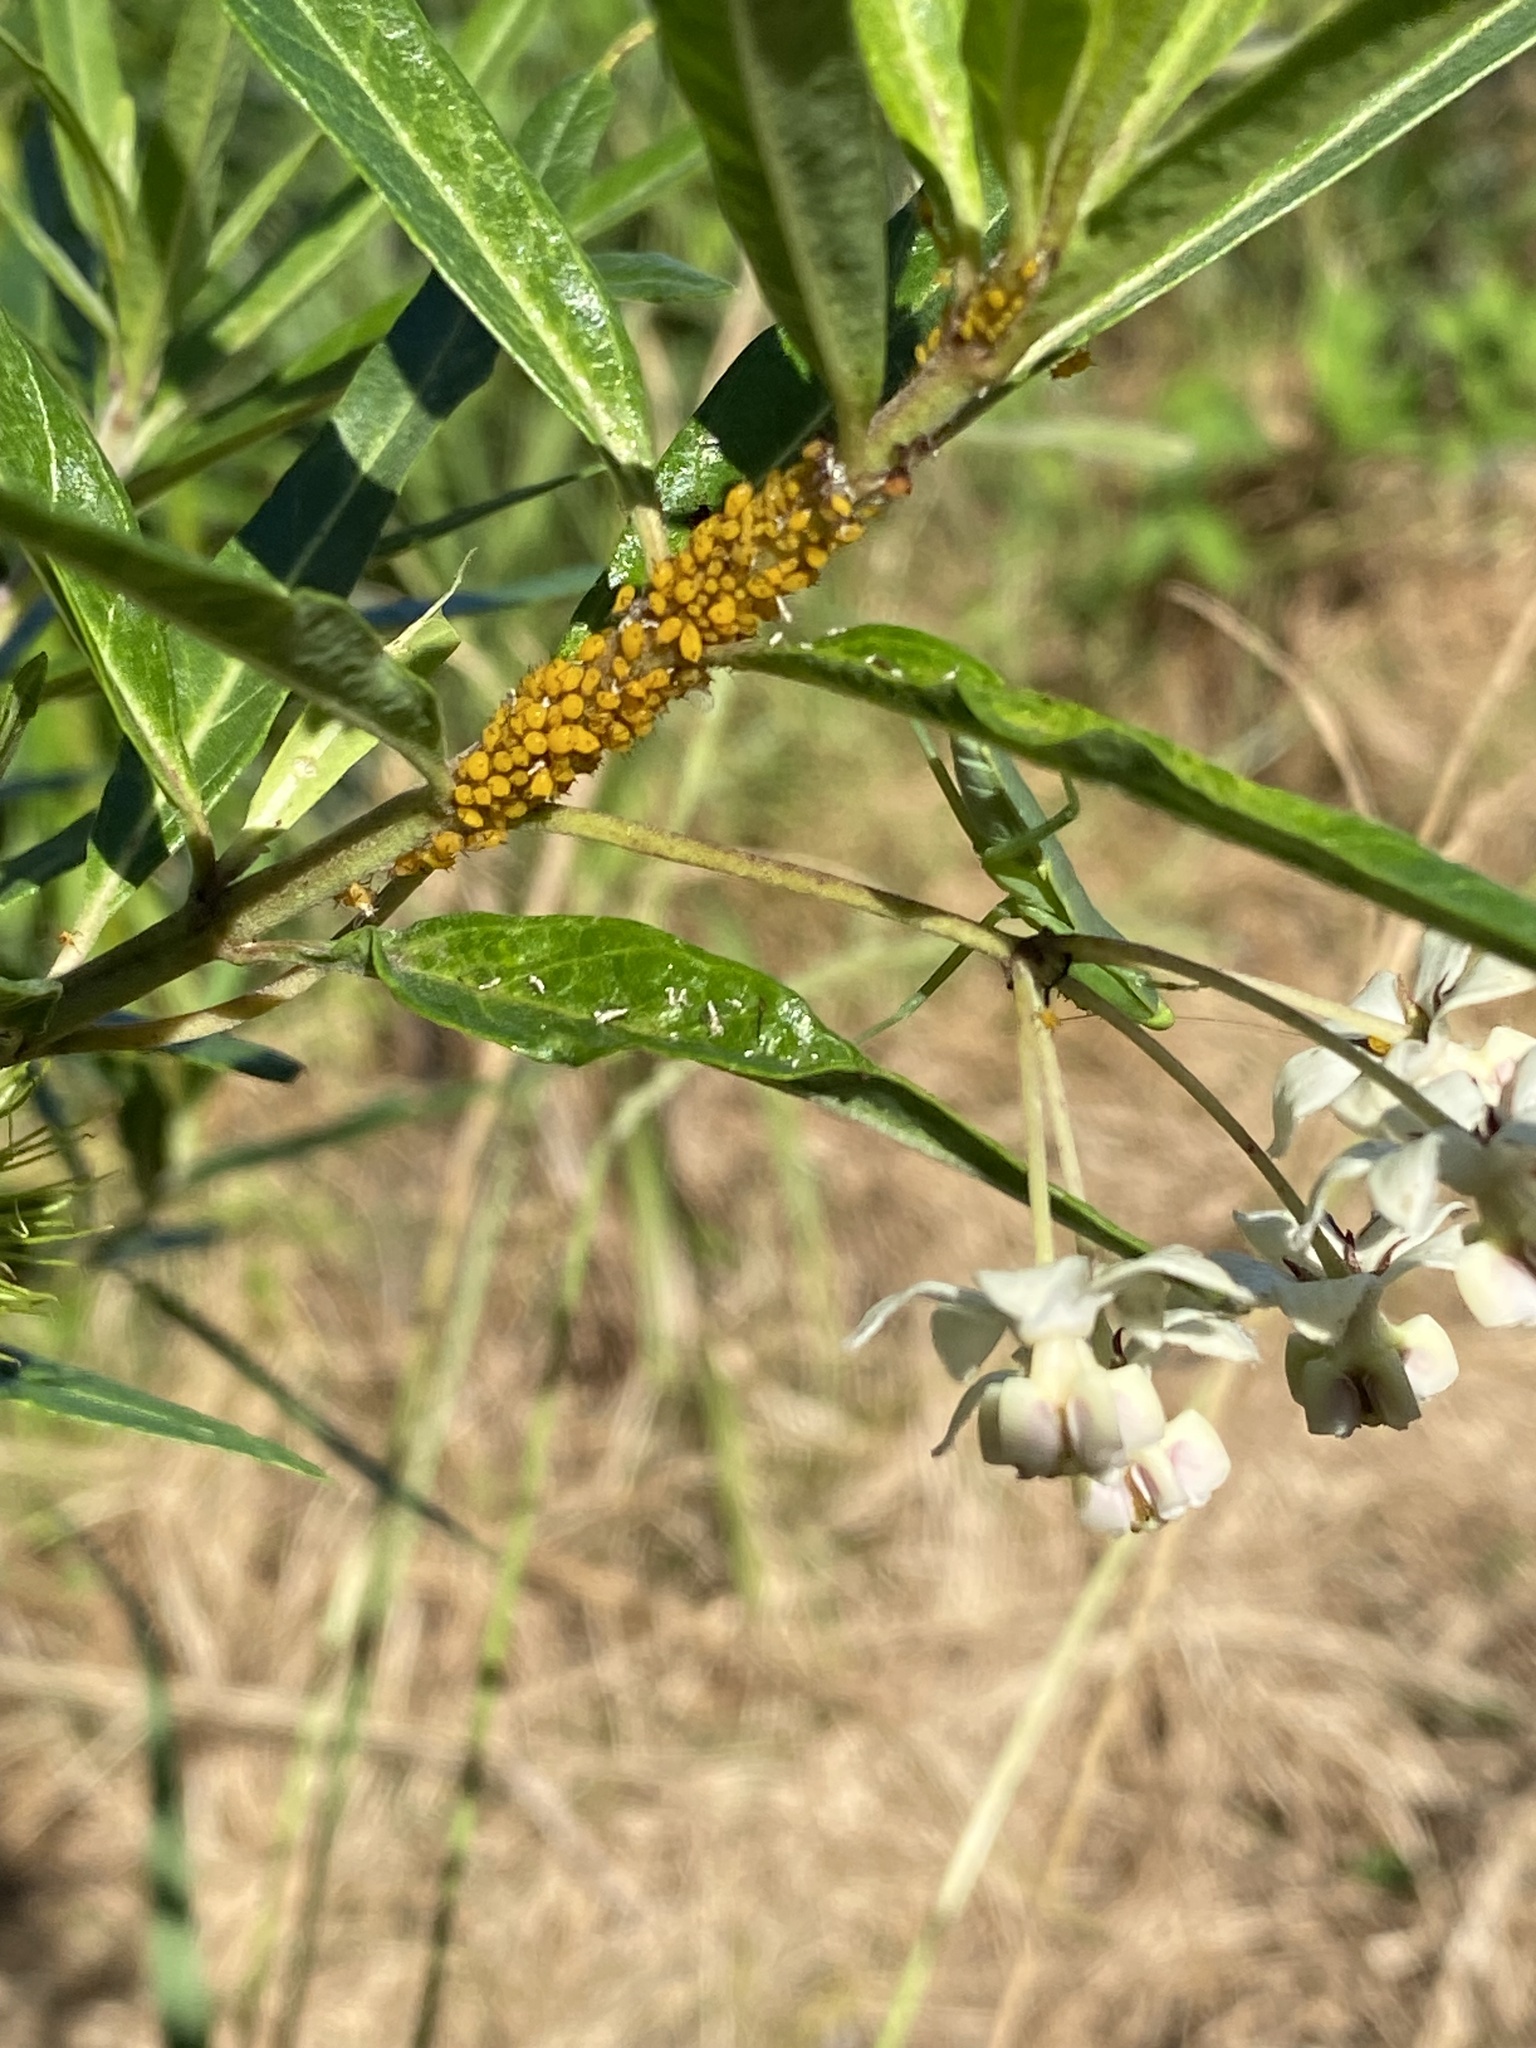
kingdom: Animalia
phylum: Arthropoda
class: Insecta
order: Hemiptera
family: Aphididae
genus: Aphis
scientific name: Aphis nerii
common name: Oleander aphid
